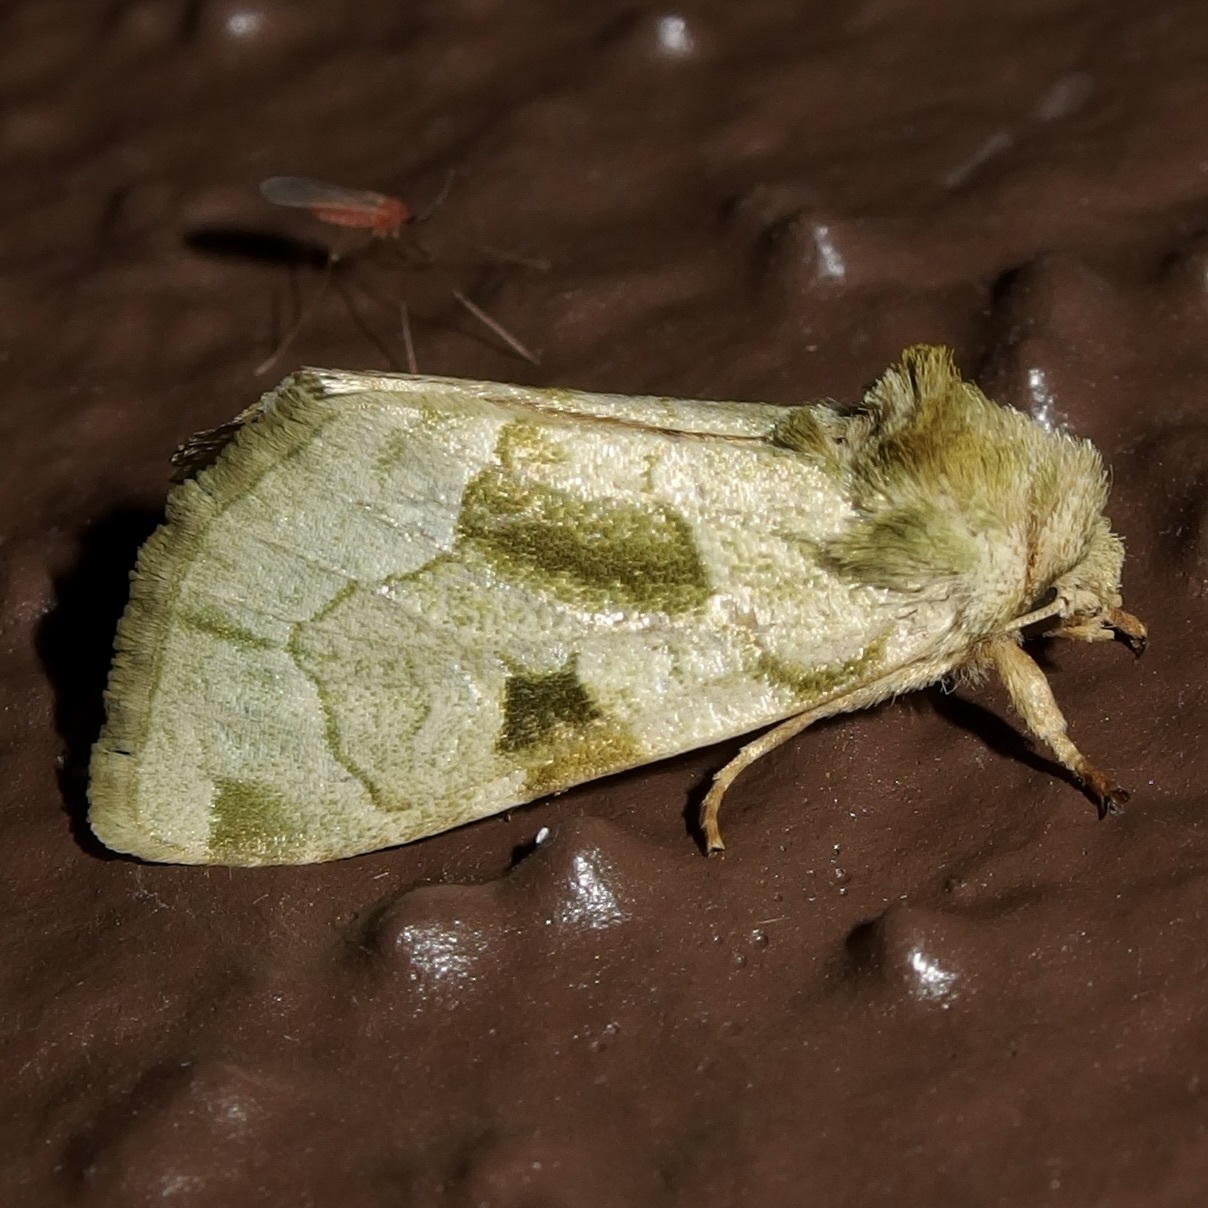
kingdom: Animalia
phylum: Arthropoda
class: Insecta
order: Lepidoptera
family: Noctuidae
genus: Oslaria
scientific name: Oslaria viridifera
